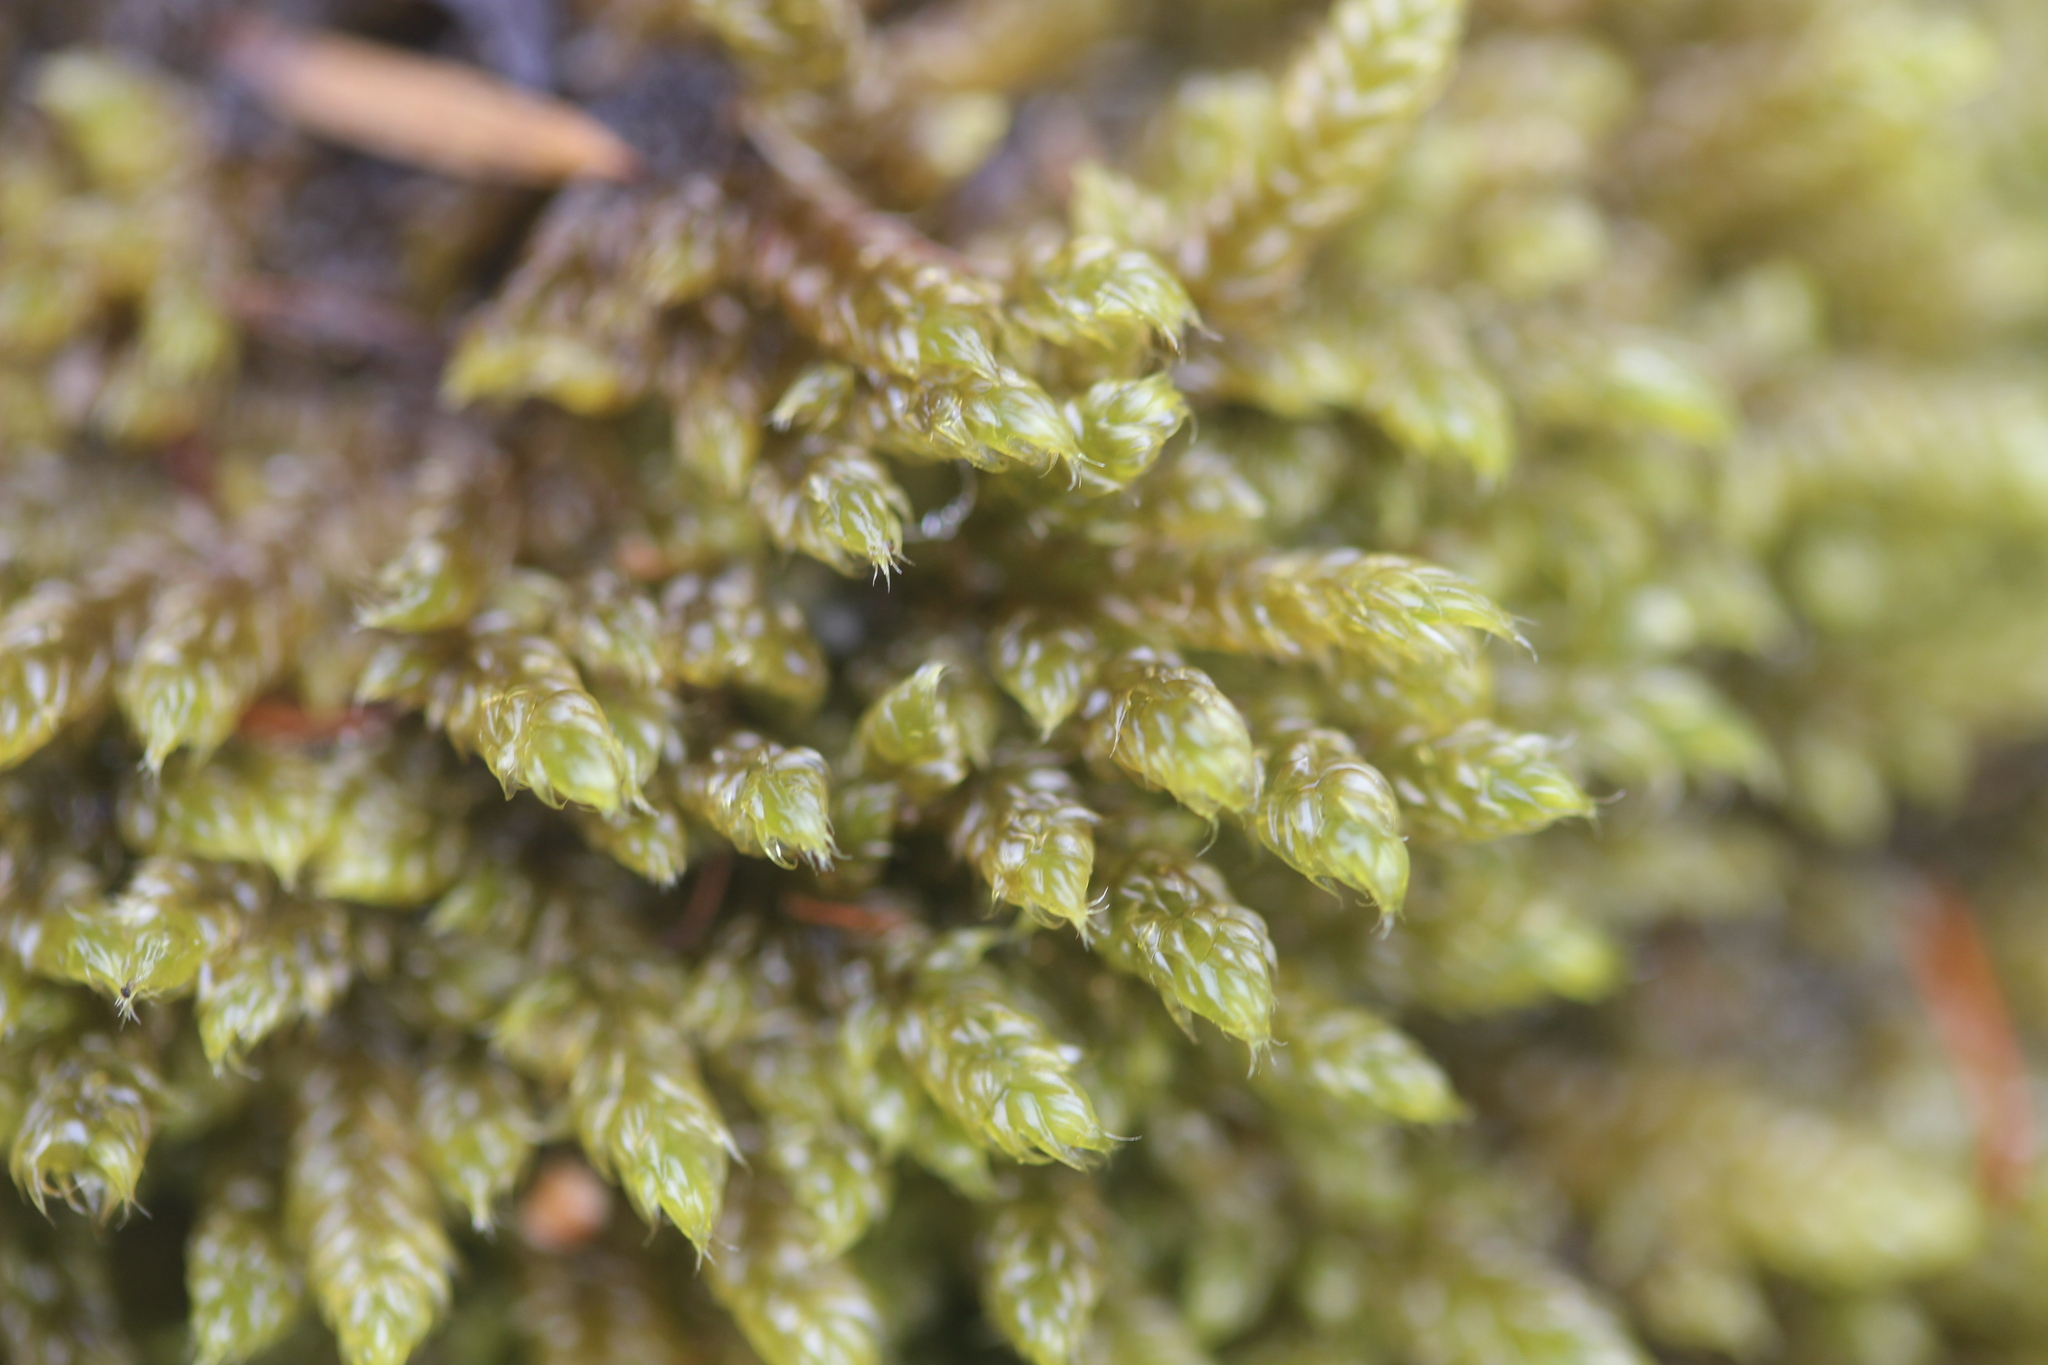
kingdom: Plantae
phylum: Bryophyta
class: Bryopsida
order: Hypnales
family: Hypnaceae
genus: Hypnum
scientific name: Hypnum cupressiforme
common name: Cypress-leaved plait-moss
